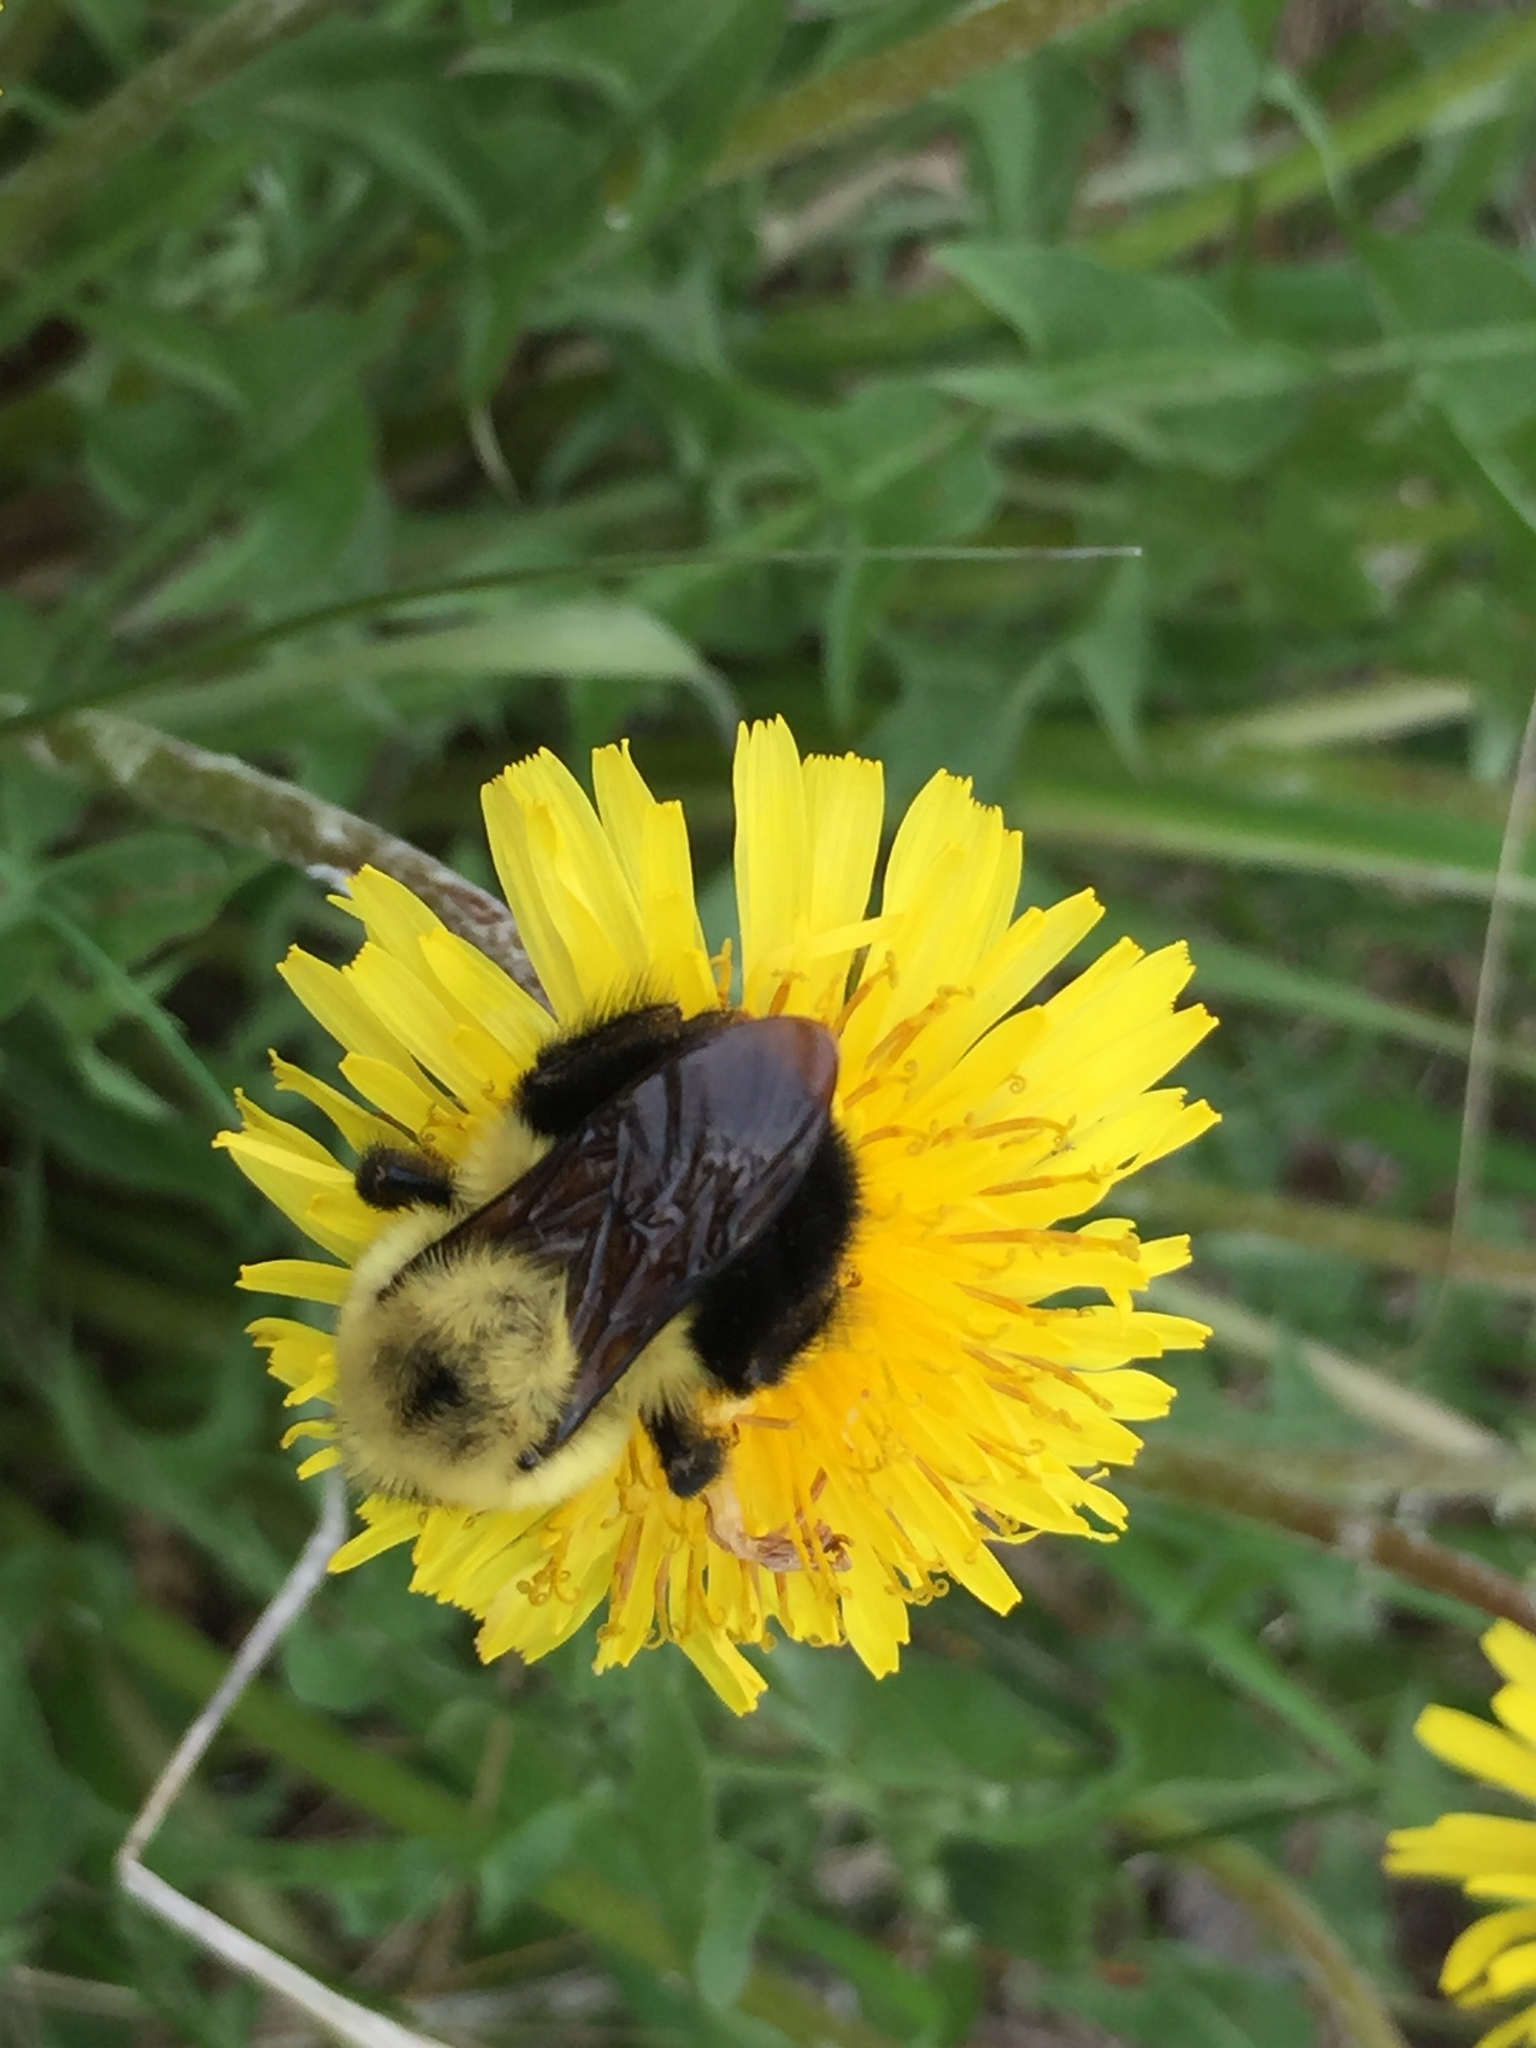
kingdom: Animalia
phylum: Arthropoda
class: Insecta
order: Hymenoptera
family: Apidae
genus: Bombus
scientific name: Bombus bimaculatus
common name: Two-spotted bumble bee
